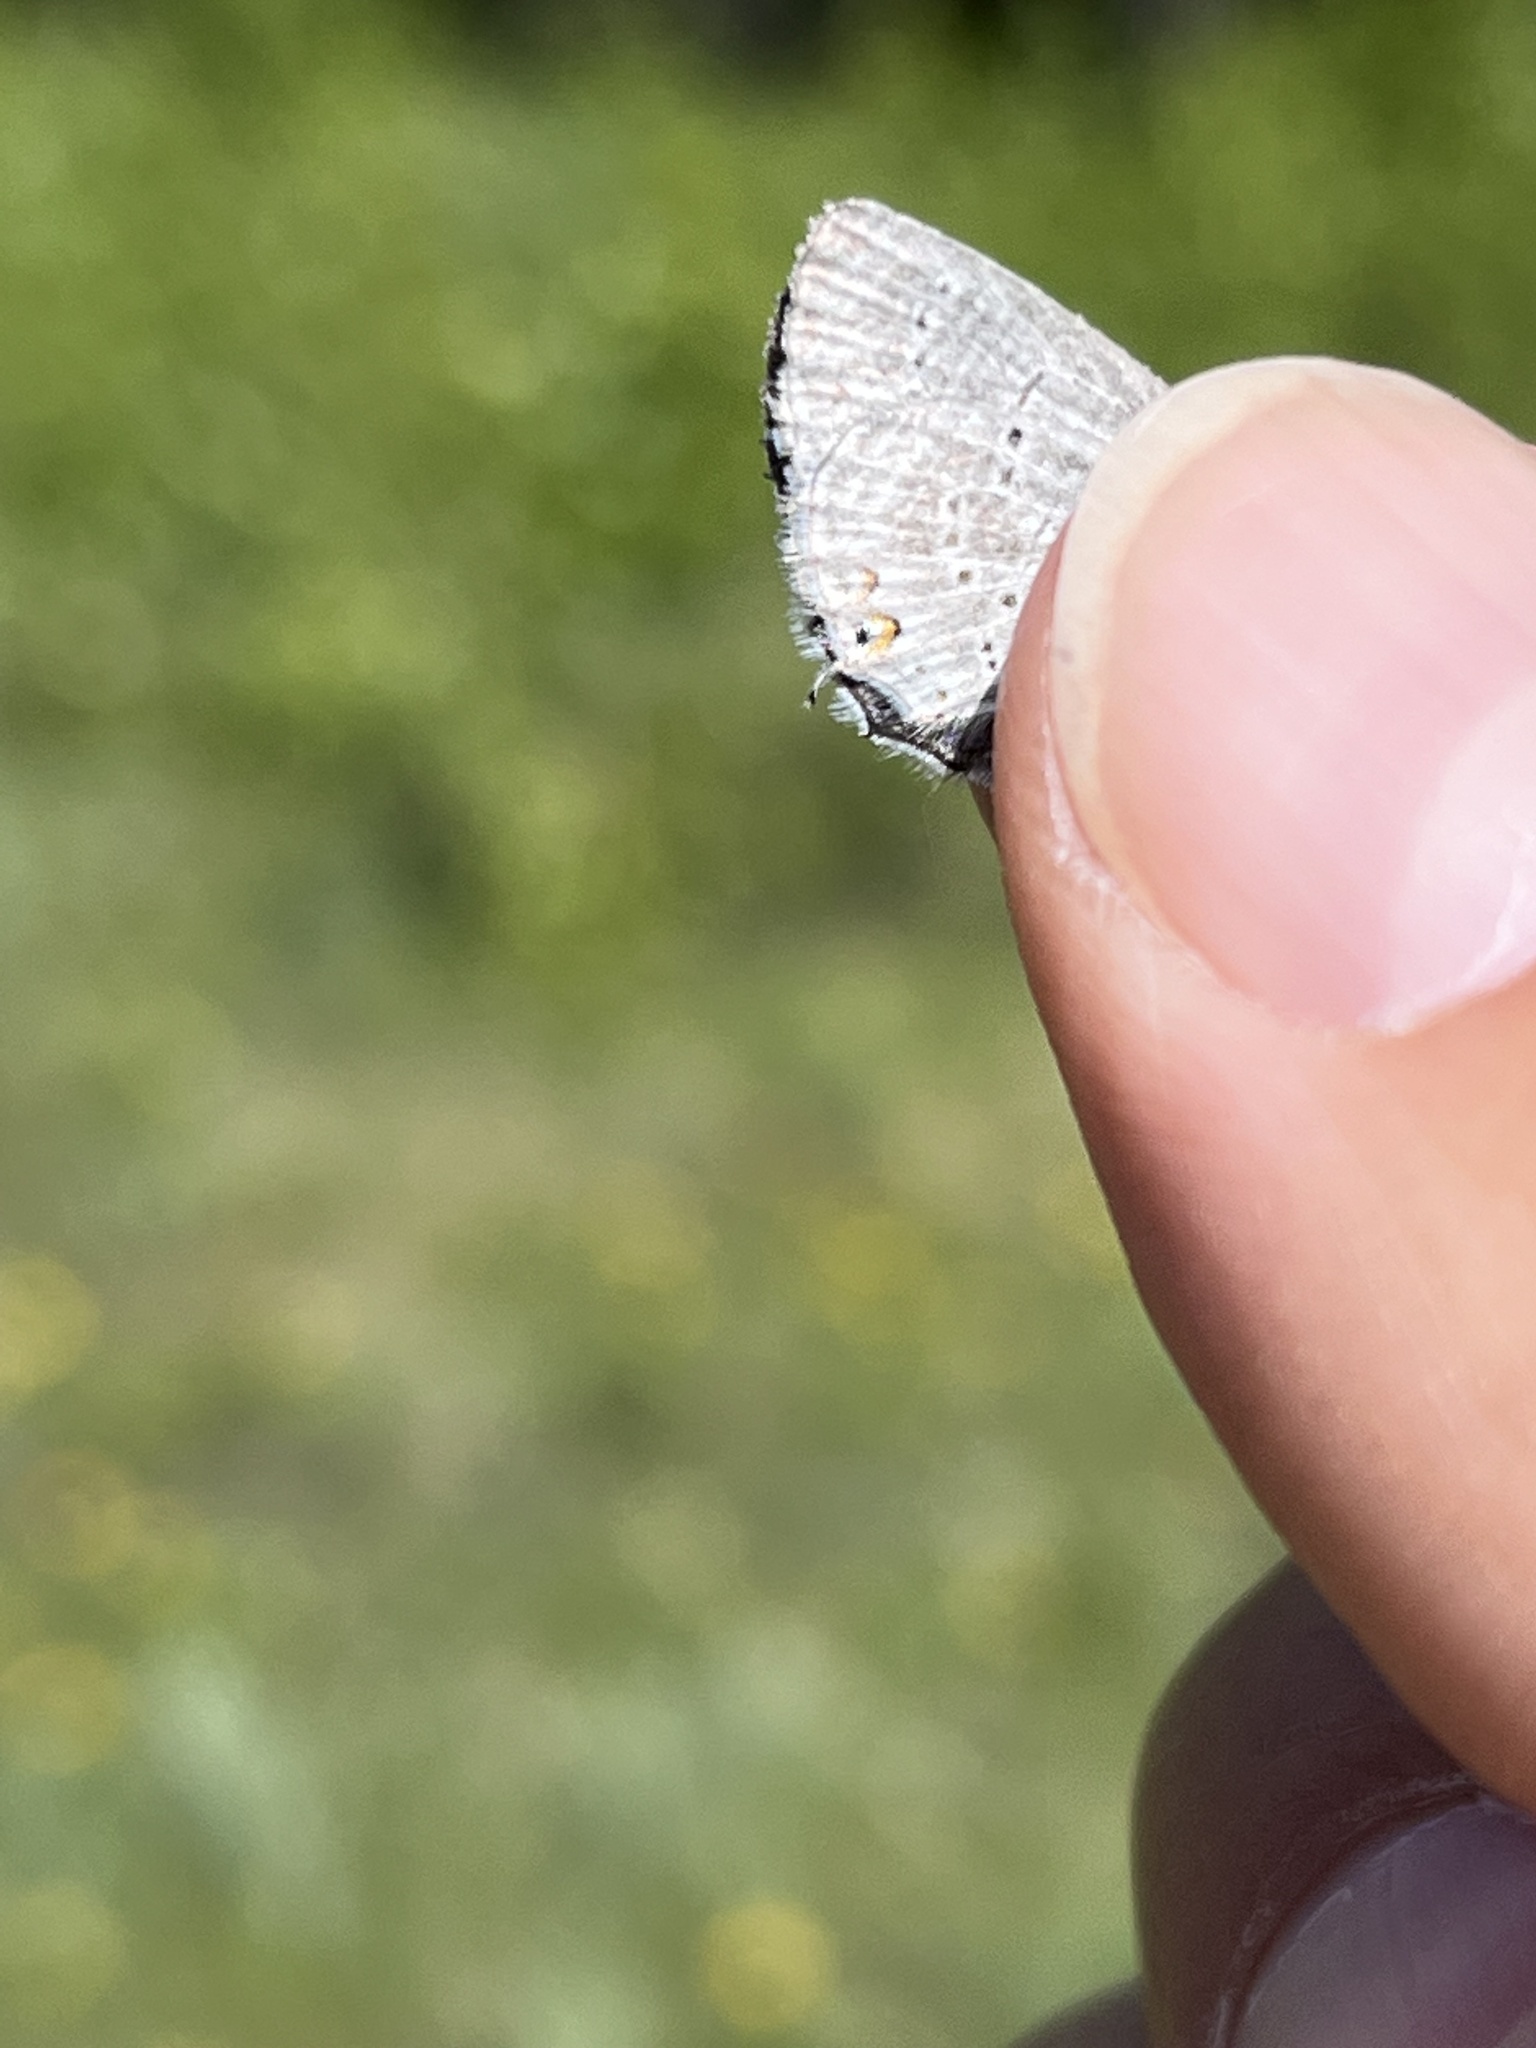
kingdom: Animalia
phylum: Arthropoda
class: Insecta
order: Lepidoptera
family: Lycaenidae
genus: Elkalyce
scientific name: Elkalyce amyntula
